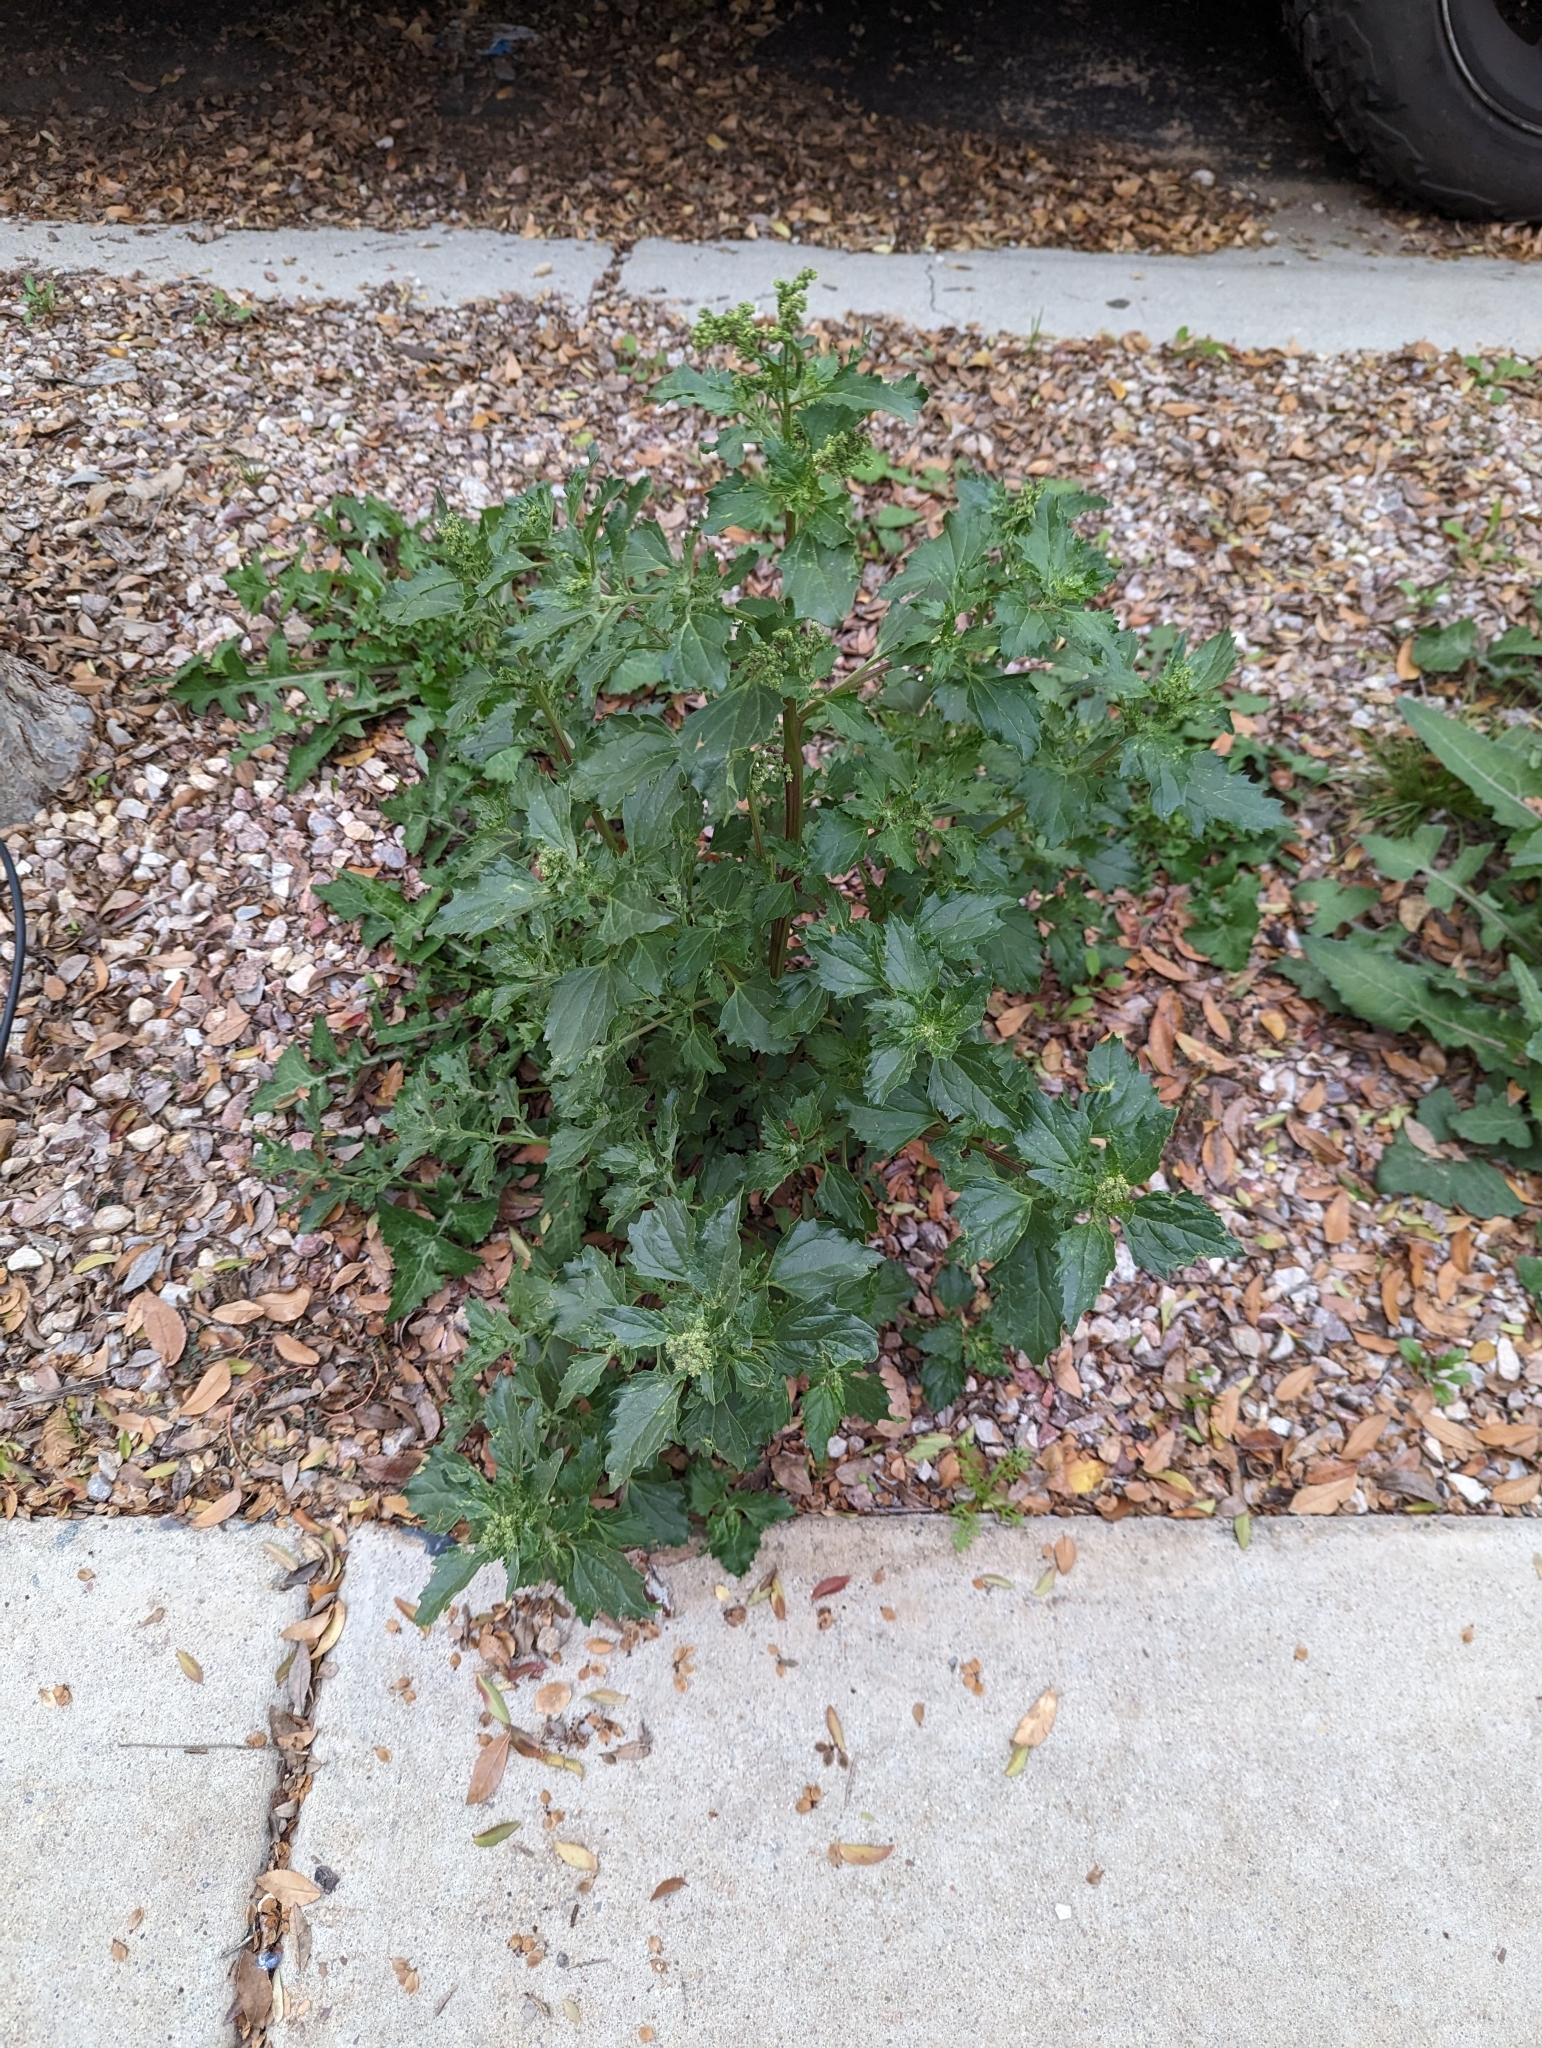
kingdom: Plantae
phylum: Tracheophyta
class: Magnoliopsida
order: Caryophyllales
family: Amaranthaceae
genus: Chenopodiastrum
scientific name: Chenopodiastrum murale
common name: Sowbane
